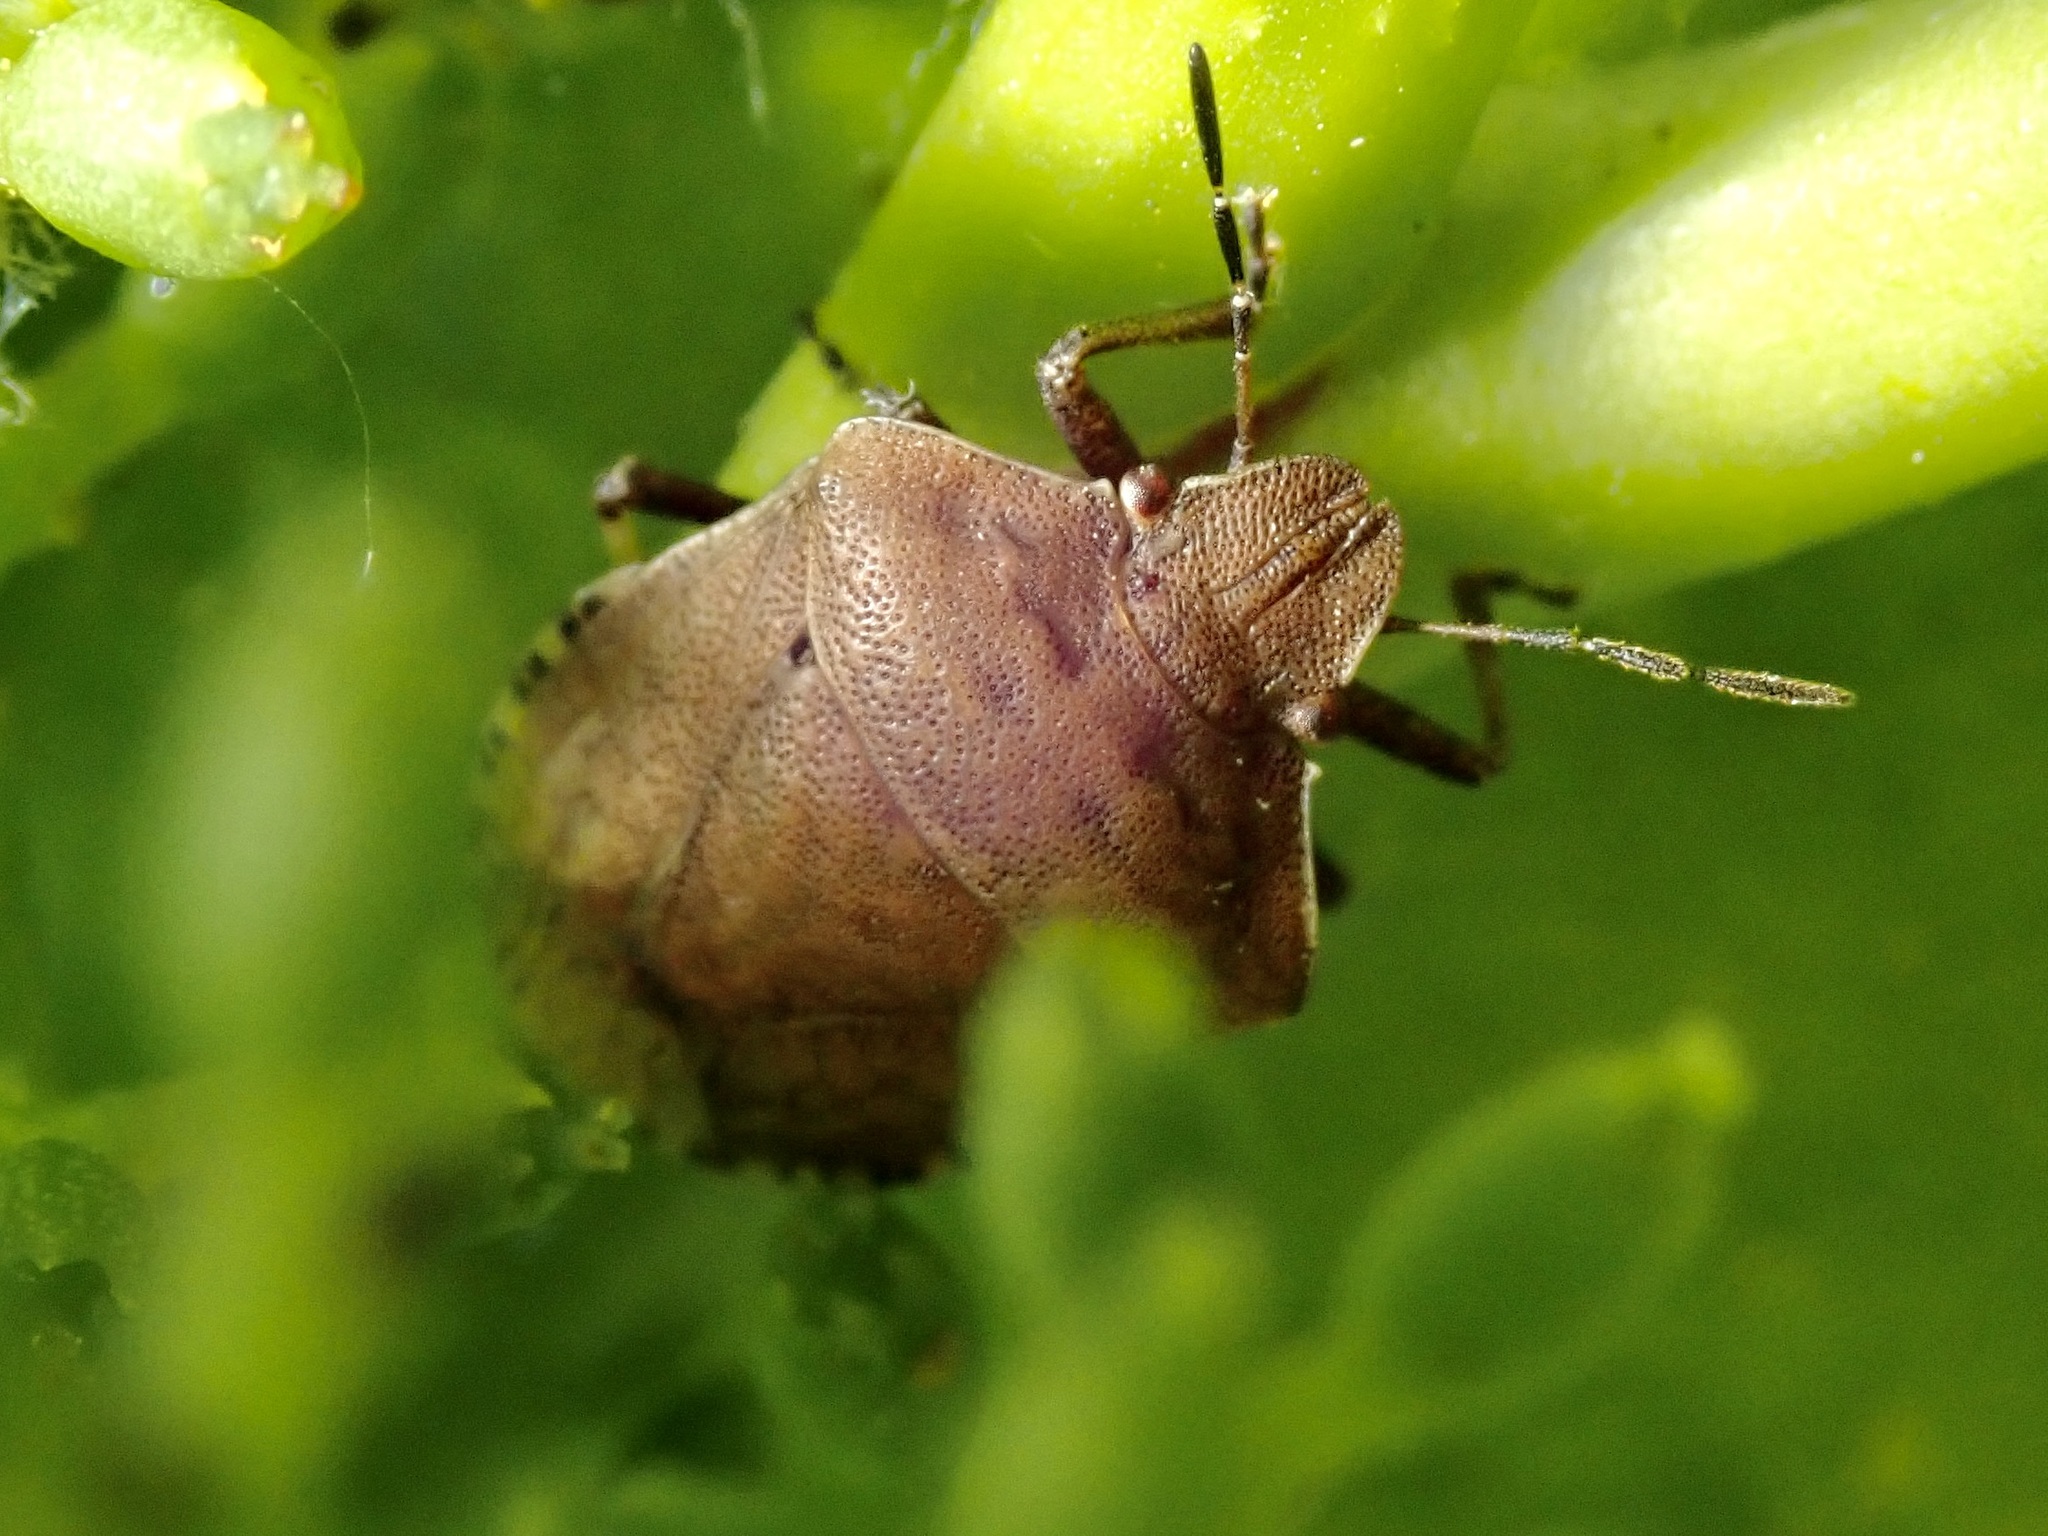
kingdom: Animalia
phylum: Arthropoda
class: Insecta
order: Hemiptera
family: Pentatomidae
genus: Dictyotus
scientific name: Dictyotus caenosus
